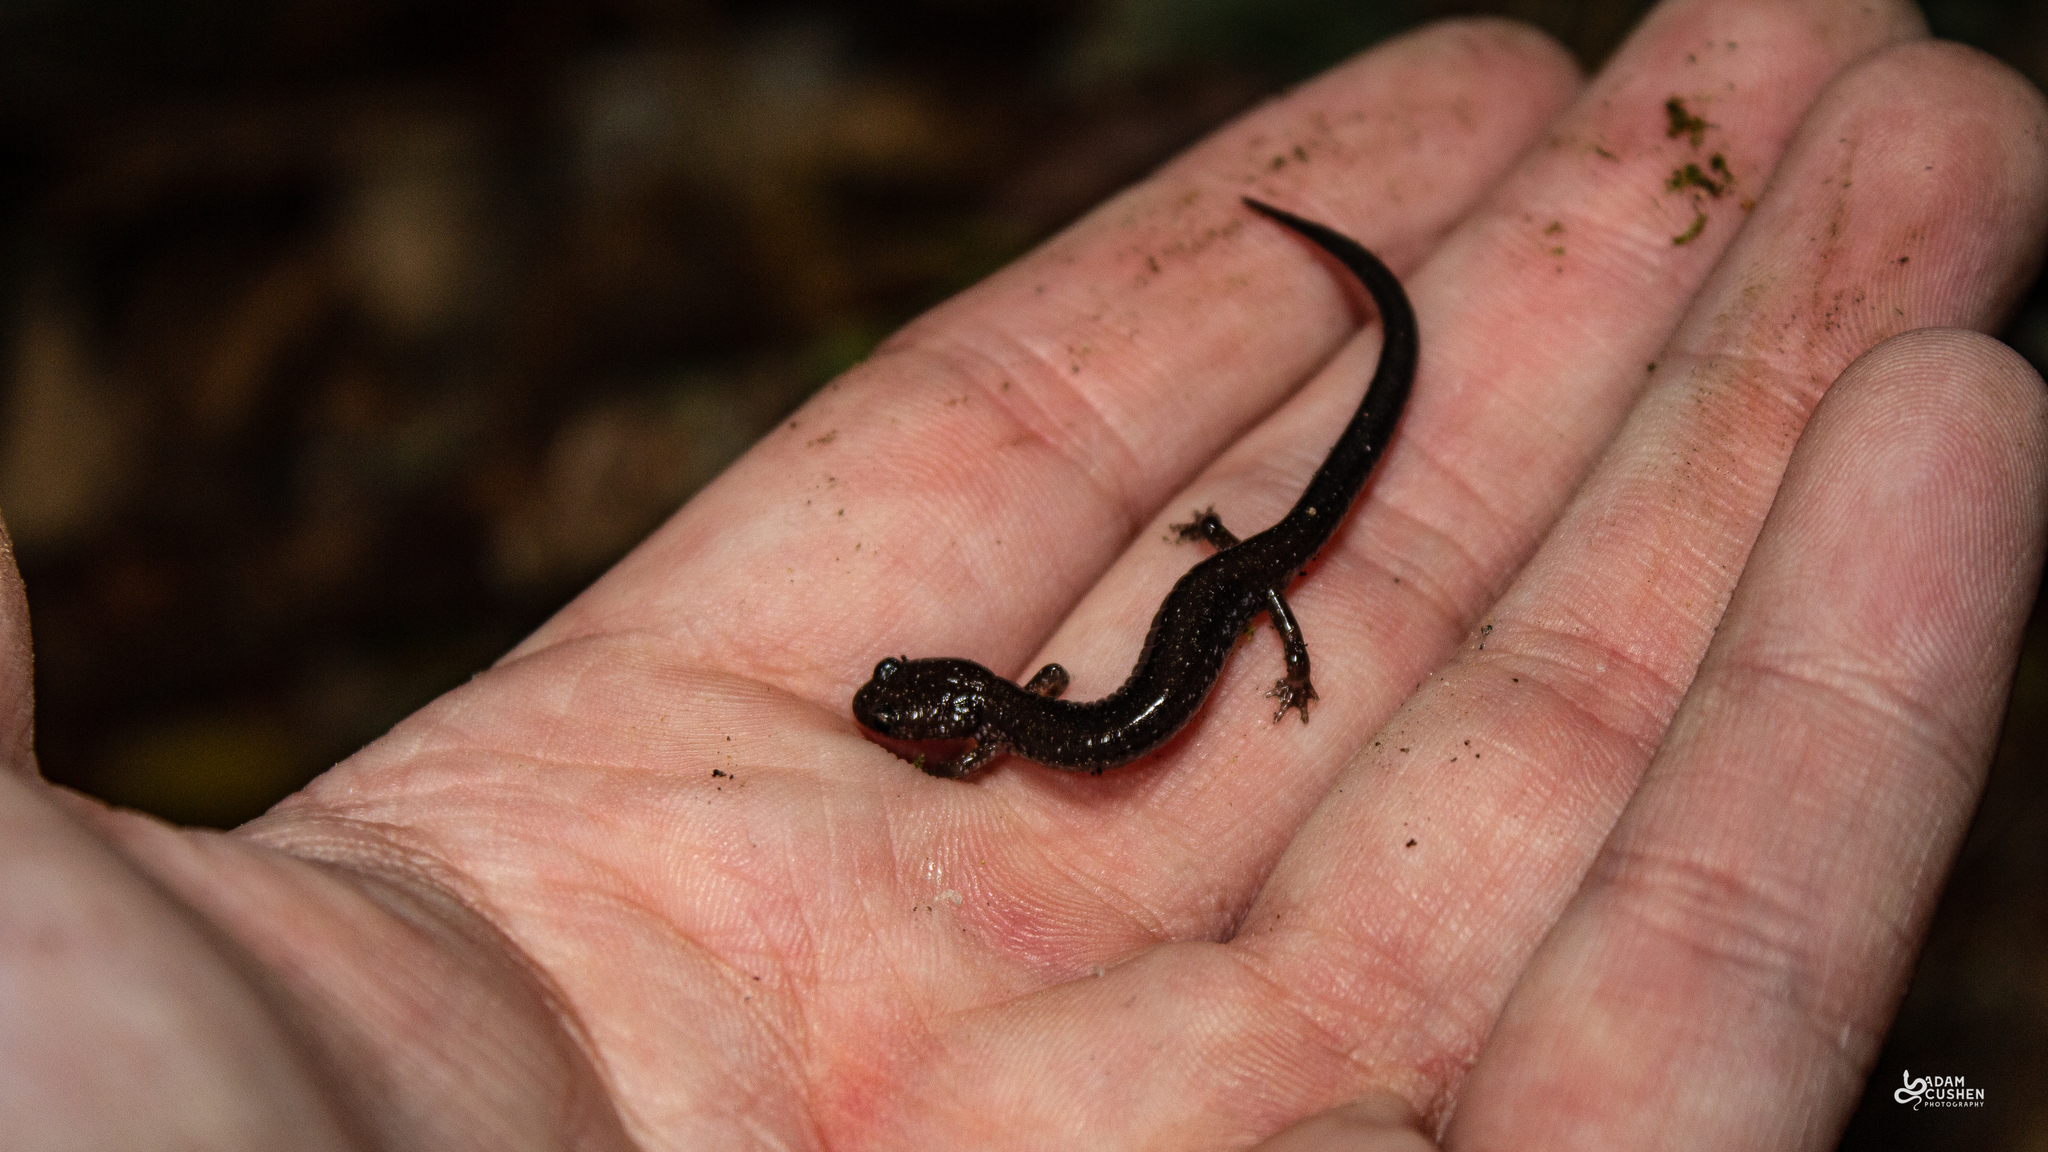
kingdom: Animalia
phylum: Chordata
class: Amphibia
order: Caudata
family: Plethodontidae
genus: Plethodon
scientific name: Plethodon cinereus
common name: Redback salamander
